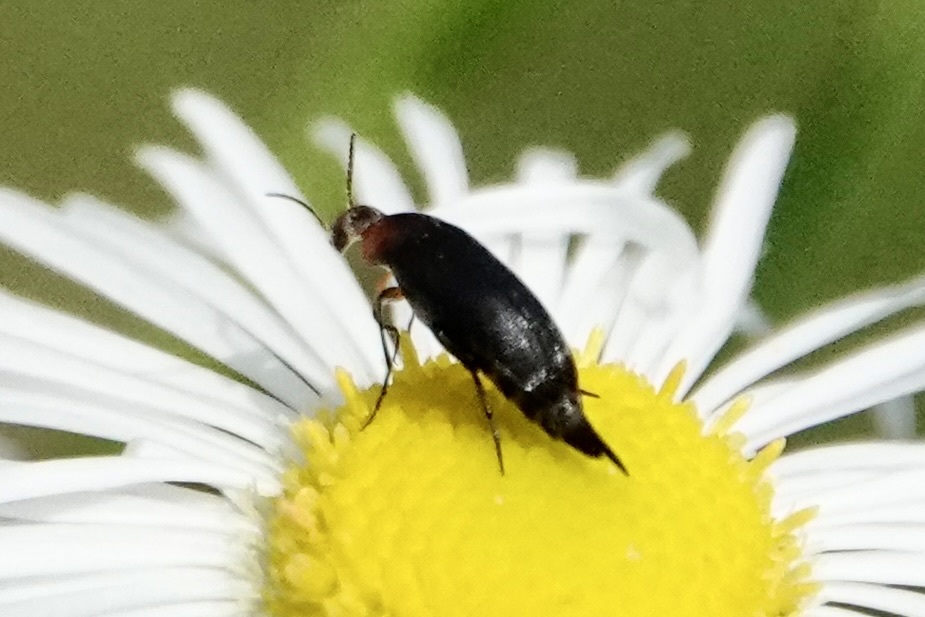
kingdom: Animalia
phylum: Arthropoda
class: Insecta
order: Coleoptera
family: Mordellidae
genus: Mordellistena
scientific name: Mordellistena cervicalis
